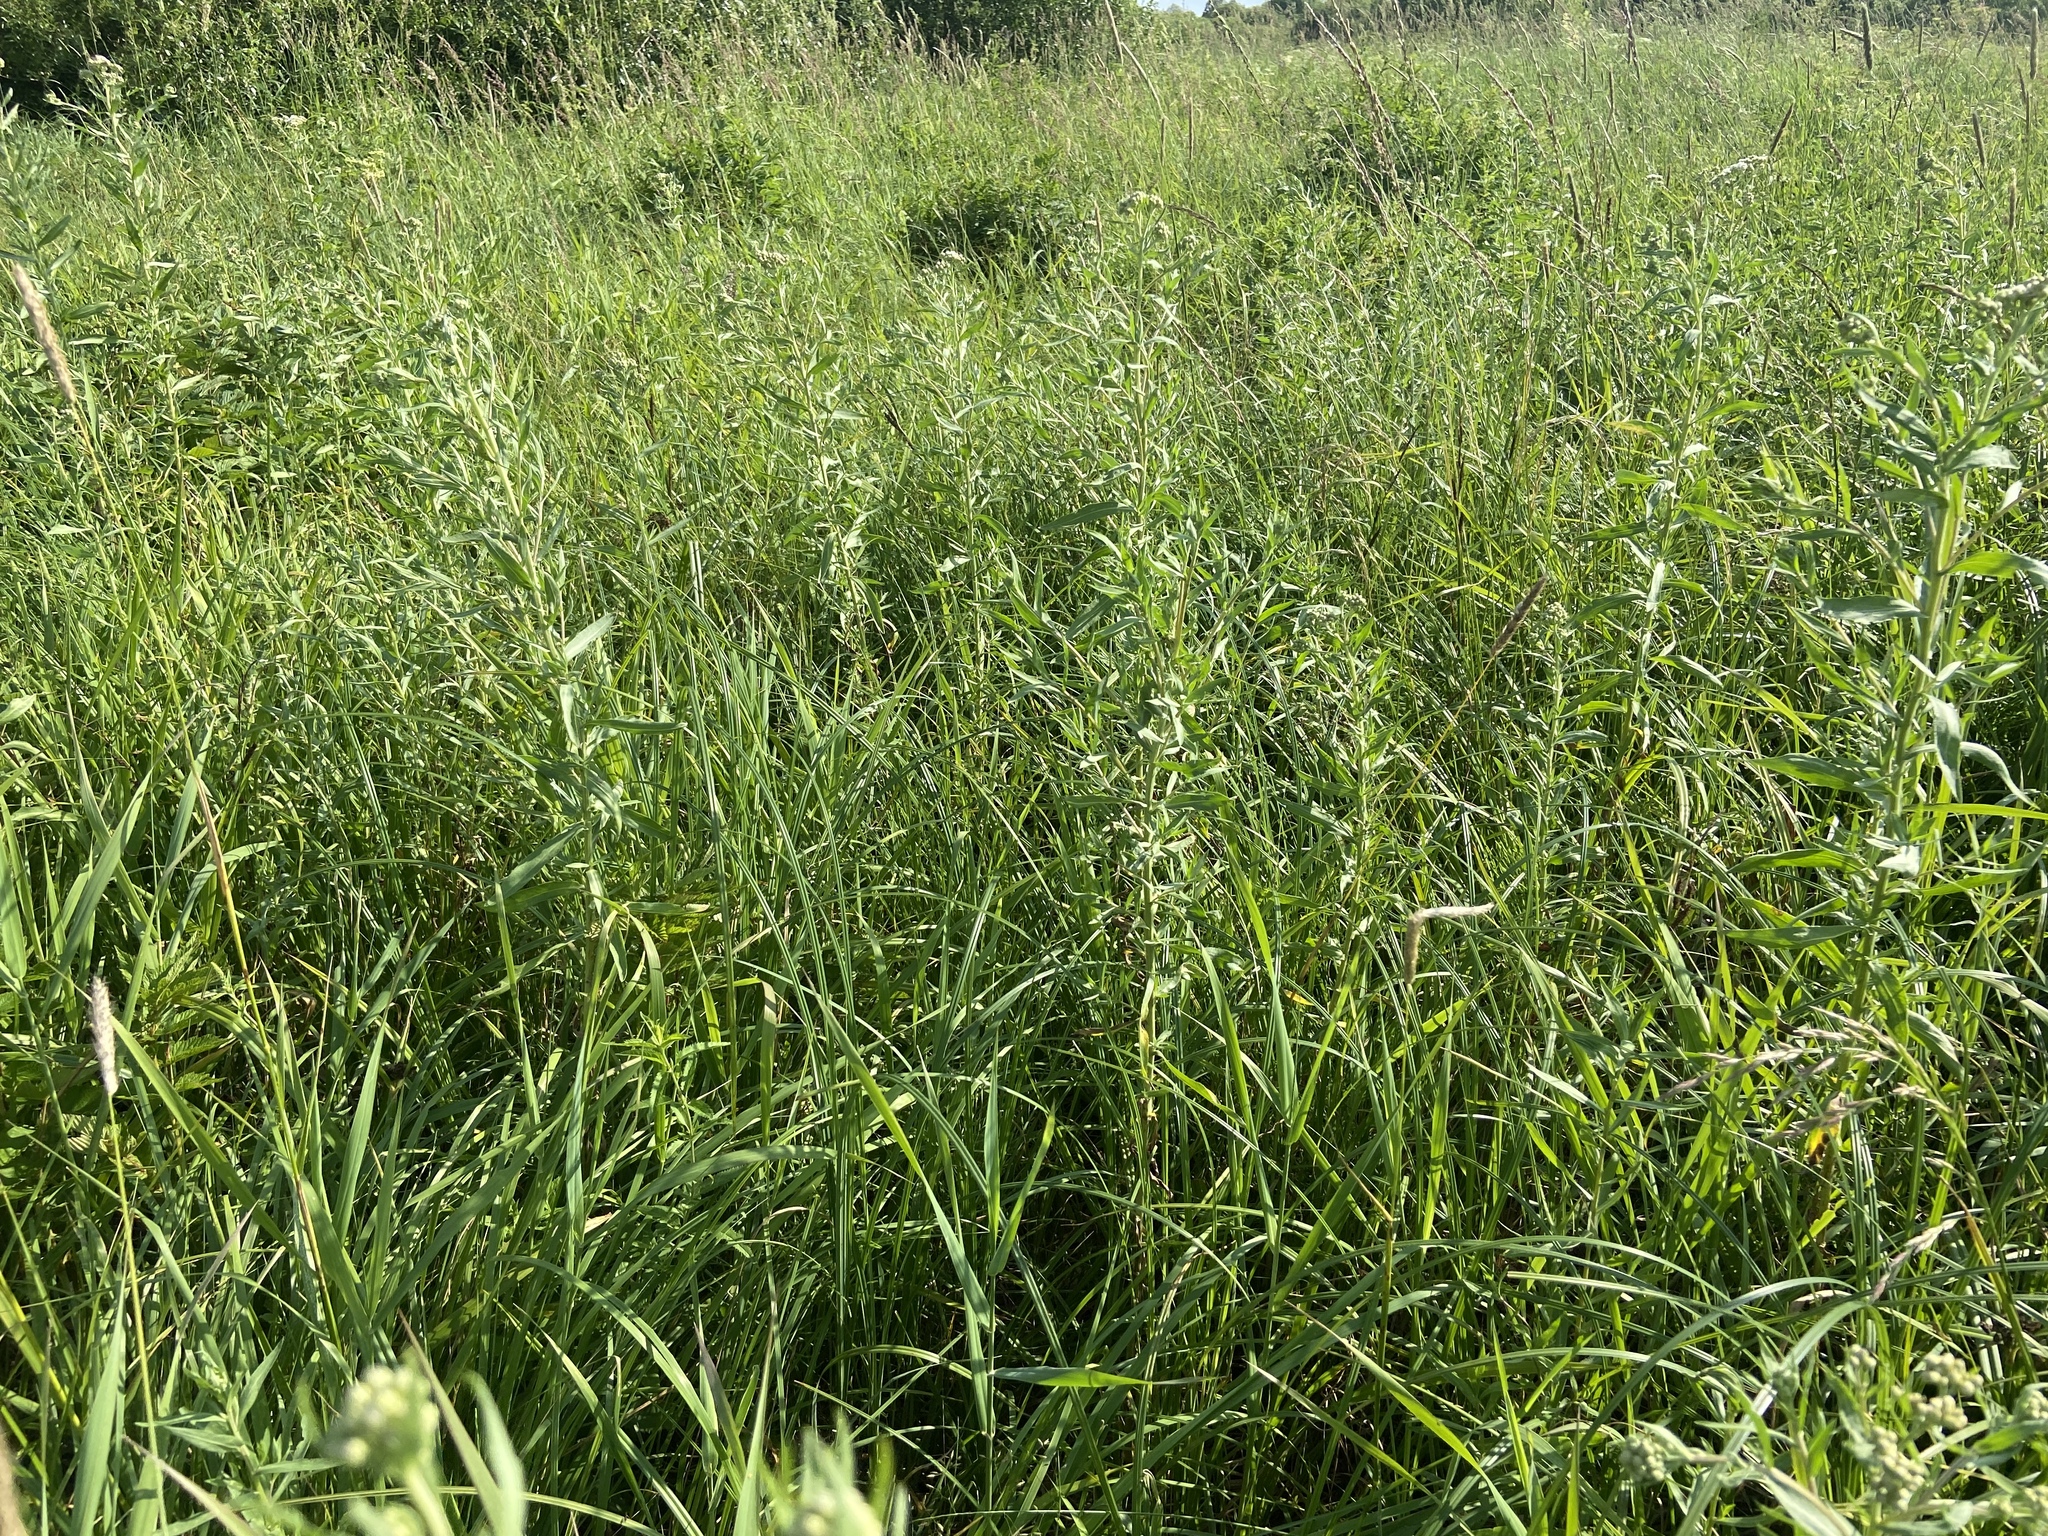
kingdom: Plantae
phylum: Tracheophyta
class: Magnoliopsida
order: Asterales
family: Asteraceae
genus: Achillea
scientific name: Achillea salicifolia
